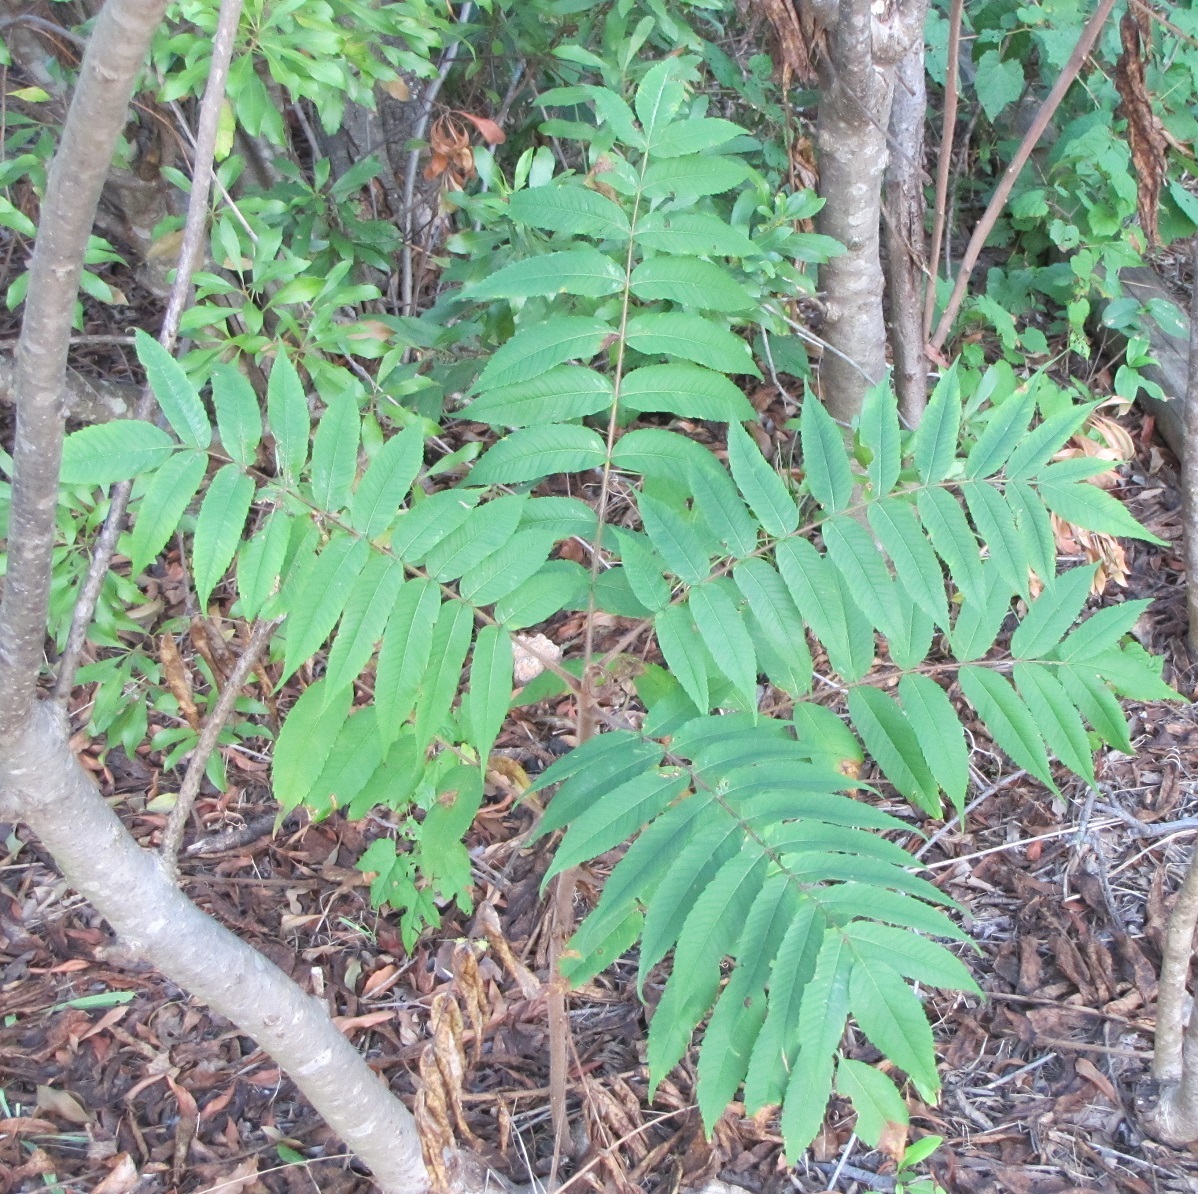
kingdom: Plantae
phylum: Tracheophyta
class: Magnoliopsida
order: Sapindales
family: Anacardiaceae
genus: Rhus
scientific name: Rhus typhina
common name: Staghorn sumac
